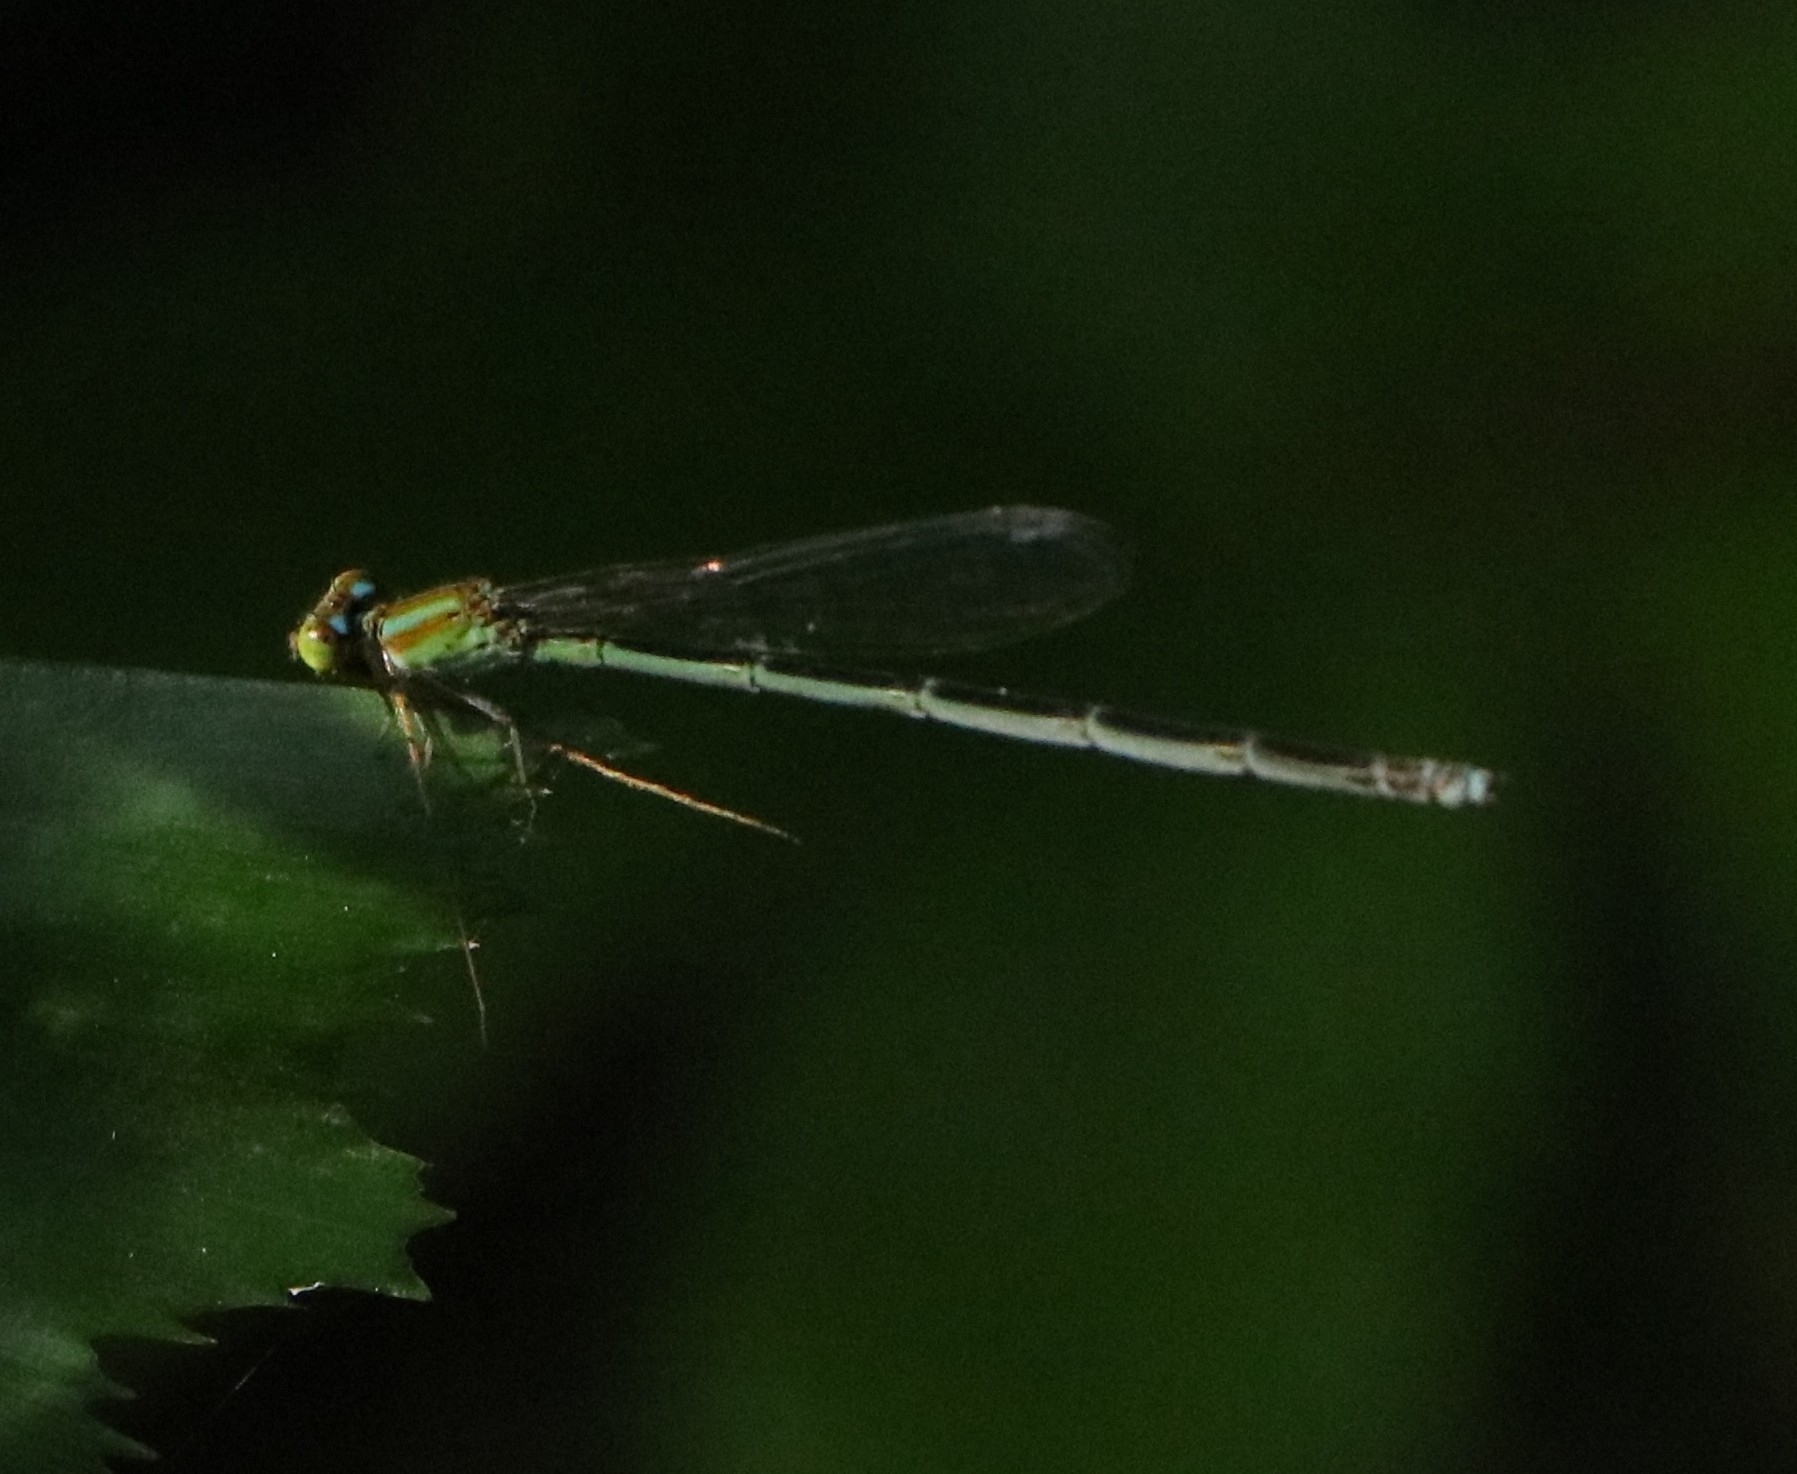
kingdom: Animalia
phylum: Arthropoda
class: Insecta
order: Odonata
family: Coenagrionidae
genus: Pseudagrion
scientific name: Pseudagrion microcephalum
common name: Blue riverdamsel
